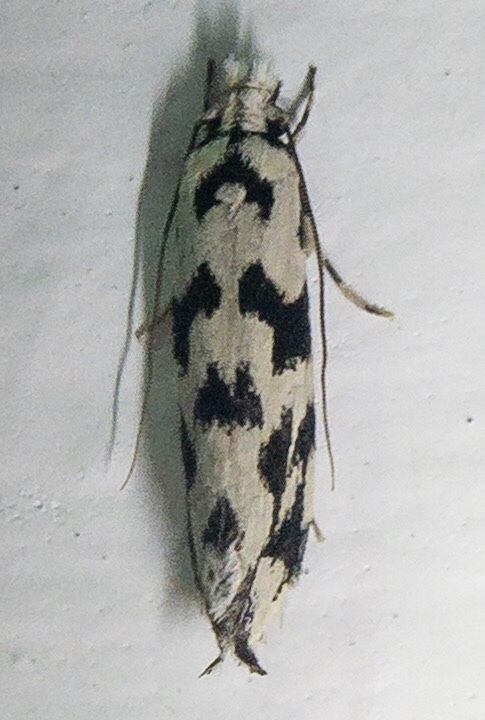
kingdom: Animalia
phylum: Arthropoda
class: Insecta
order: Lepidoptera
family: Tineidae
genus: Erechthias
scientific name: Erechthias simulans
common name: Fungus moth
